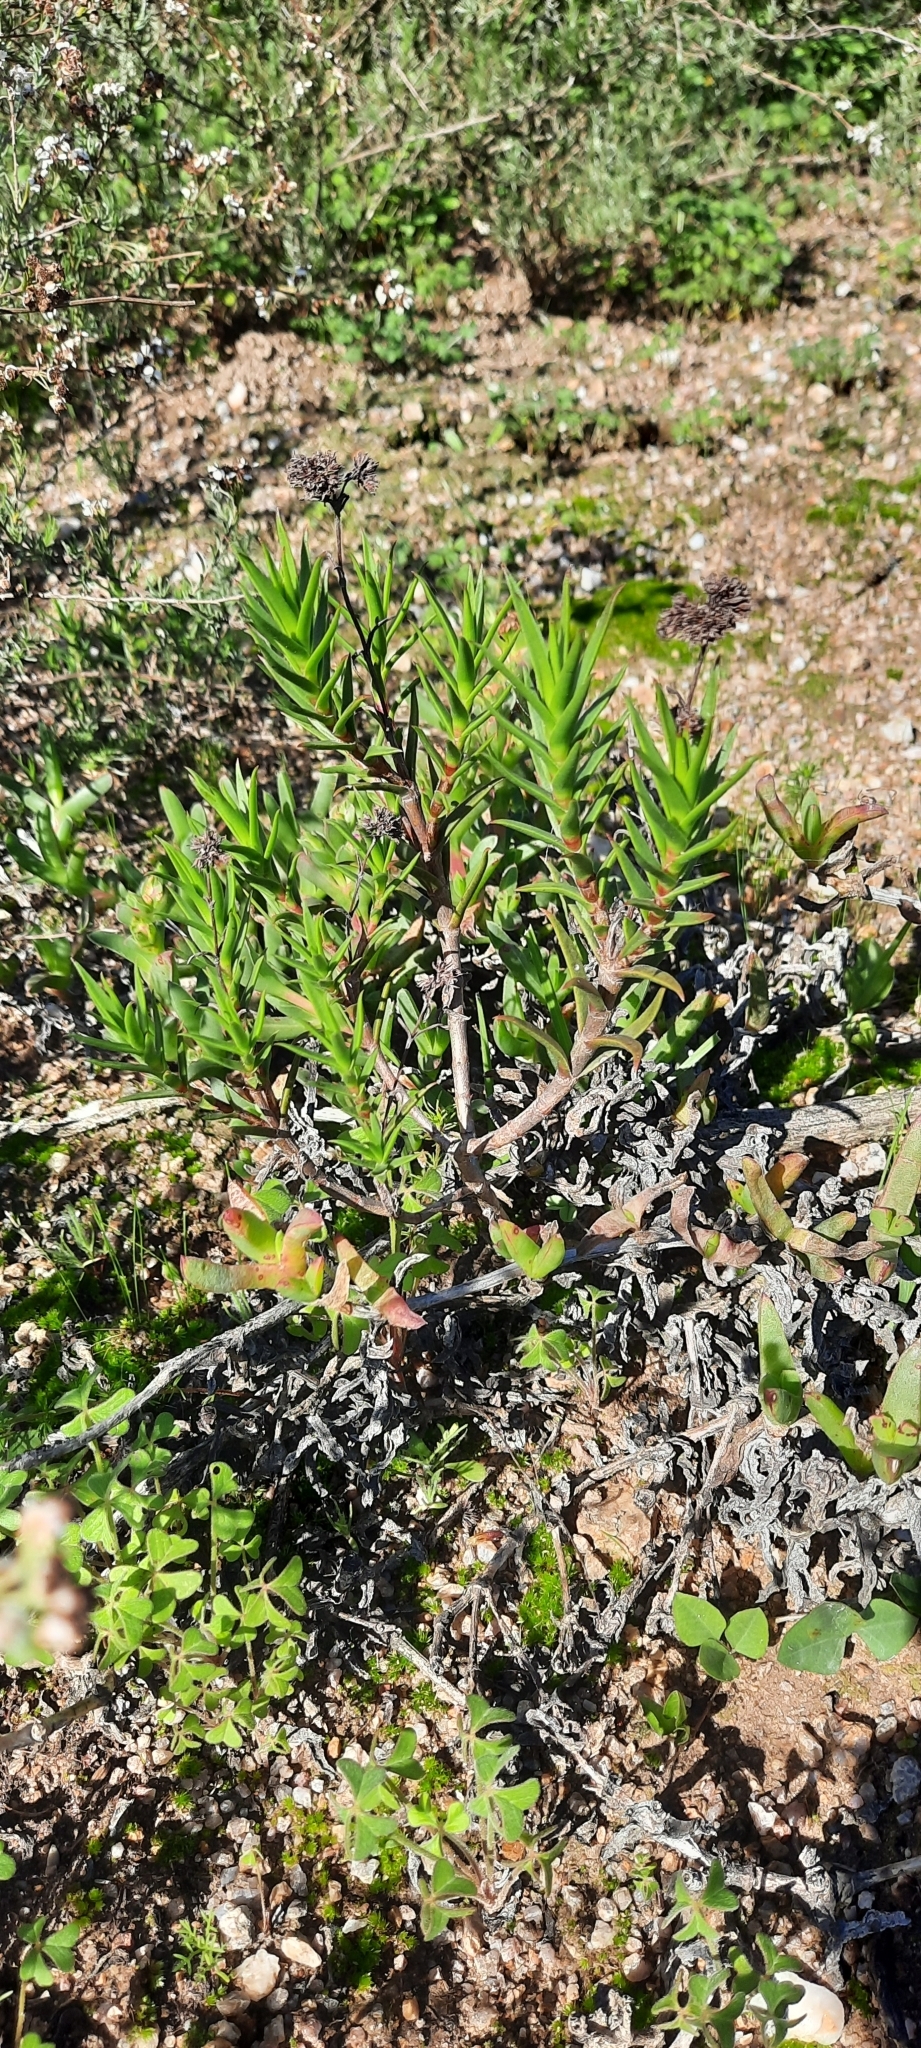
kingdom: Plantae
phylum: Tracheophyta
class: Magnoliopsida
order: Saxifragales
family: Crassulaceae
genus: Crassula
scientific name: Crassula subulata
